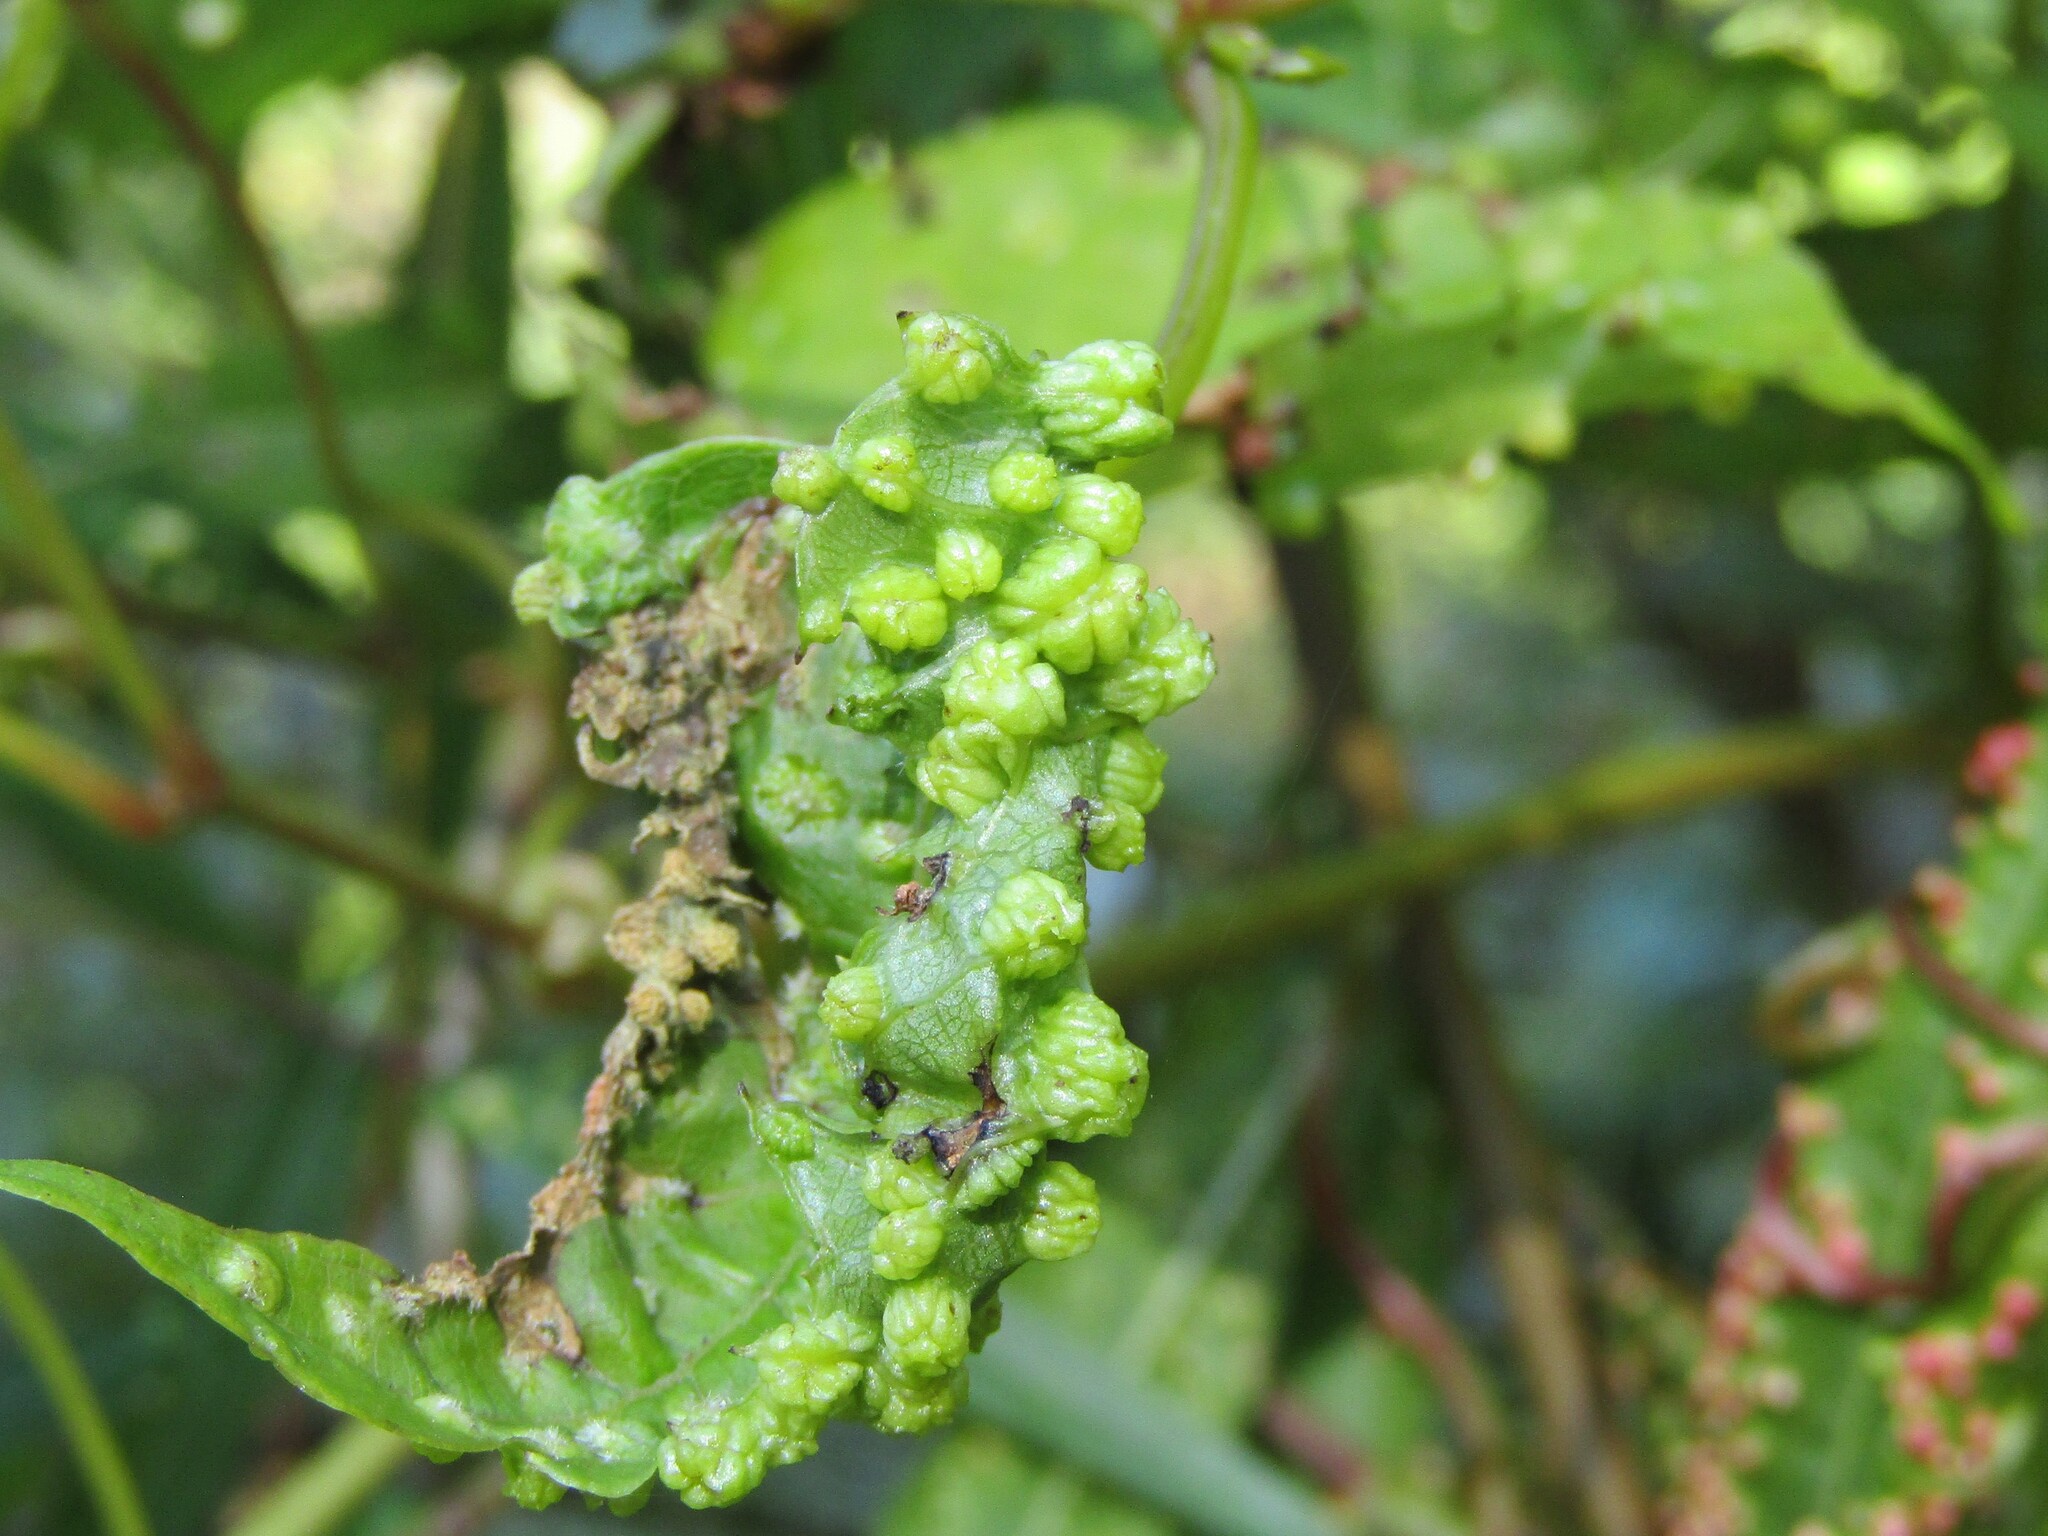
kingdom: Animalia
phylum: Arthropoda
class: Insecta
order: Hemiptera
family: Phylloxeridae
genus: Daktulosphaira
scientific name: Daktulosphaira vitifoliae
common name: Grape phylloxera
